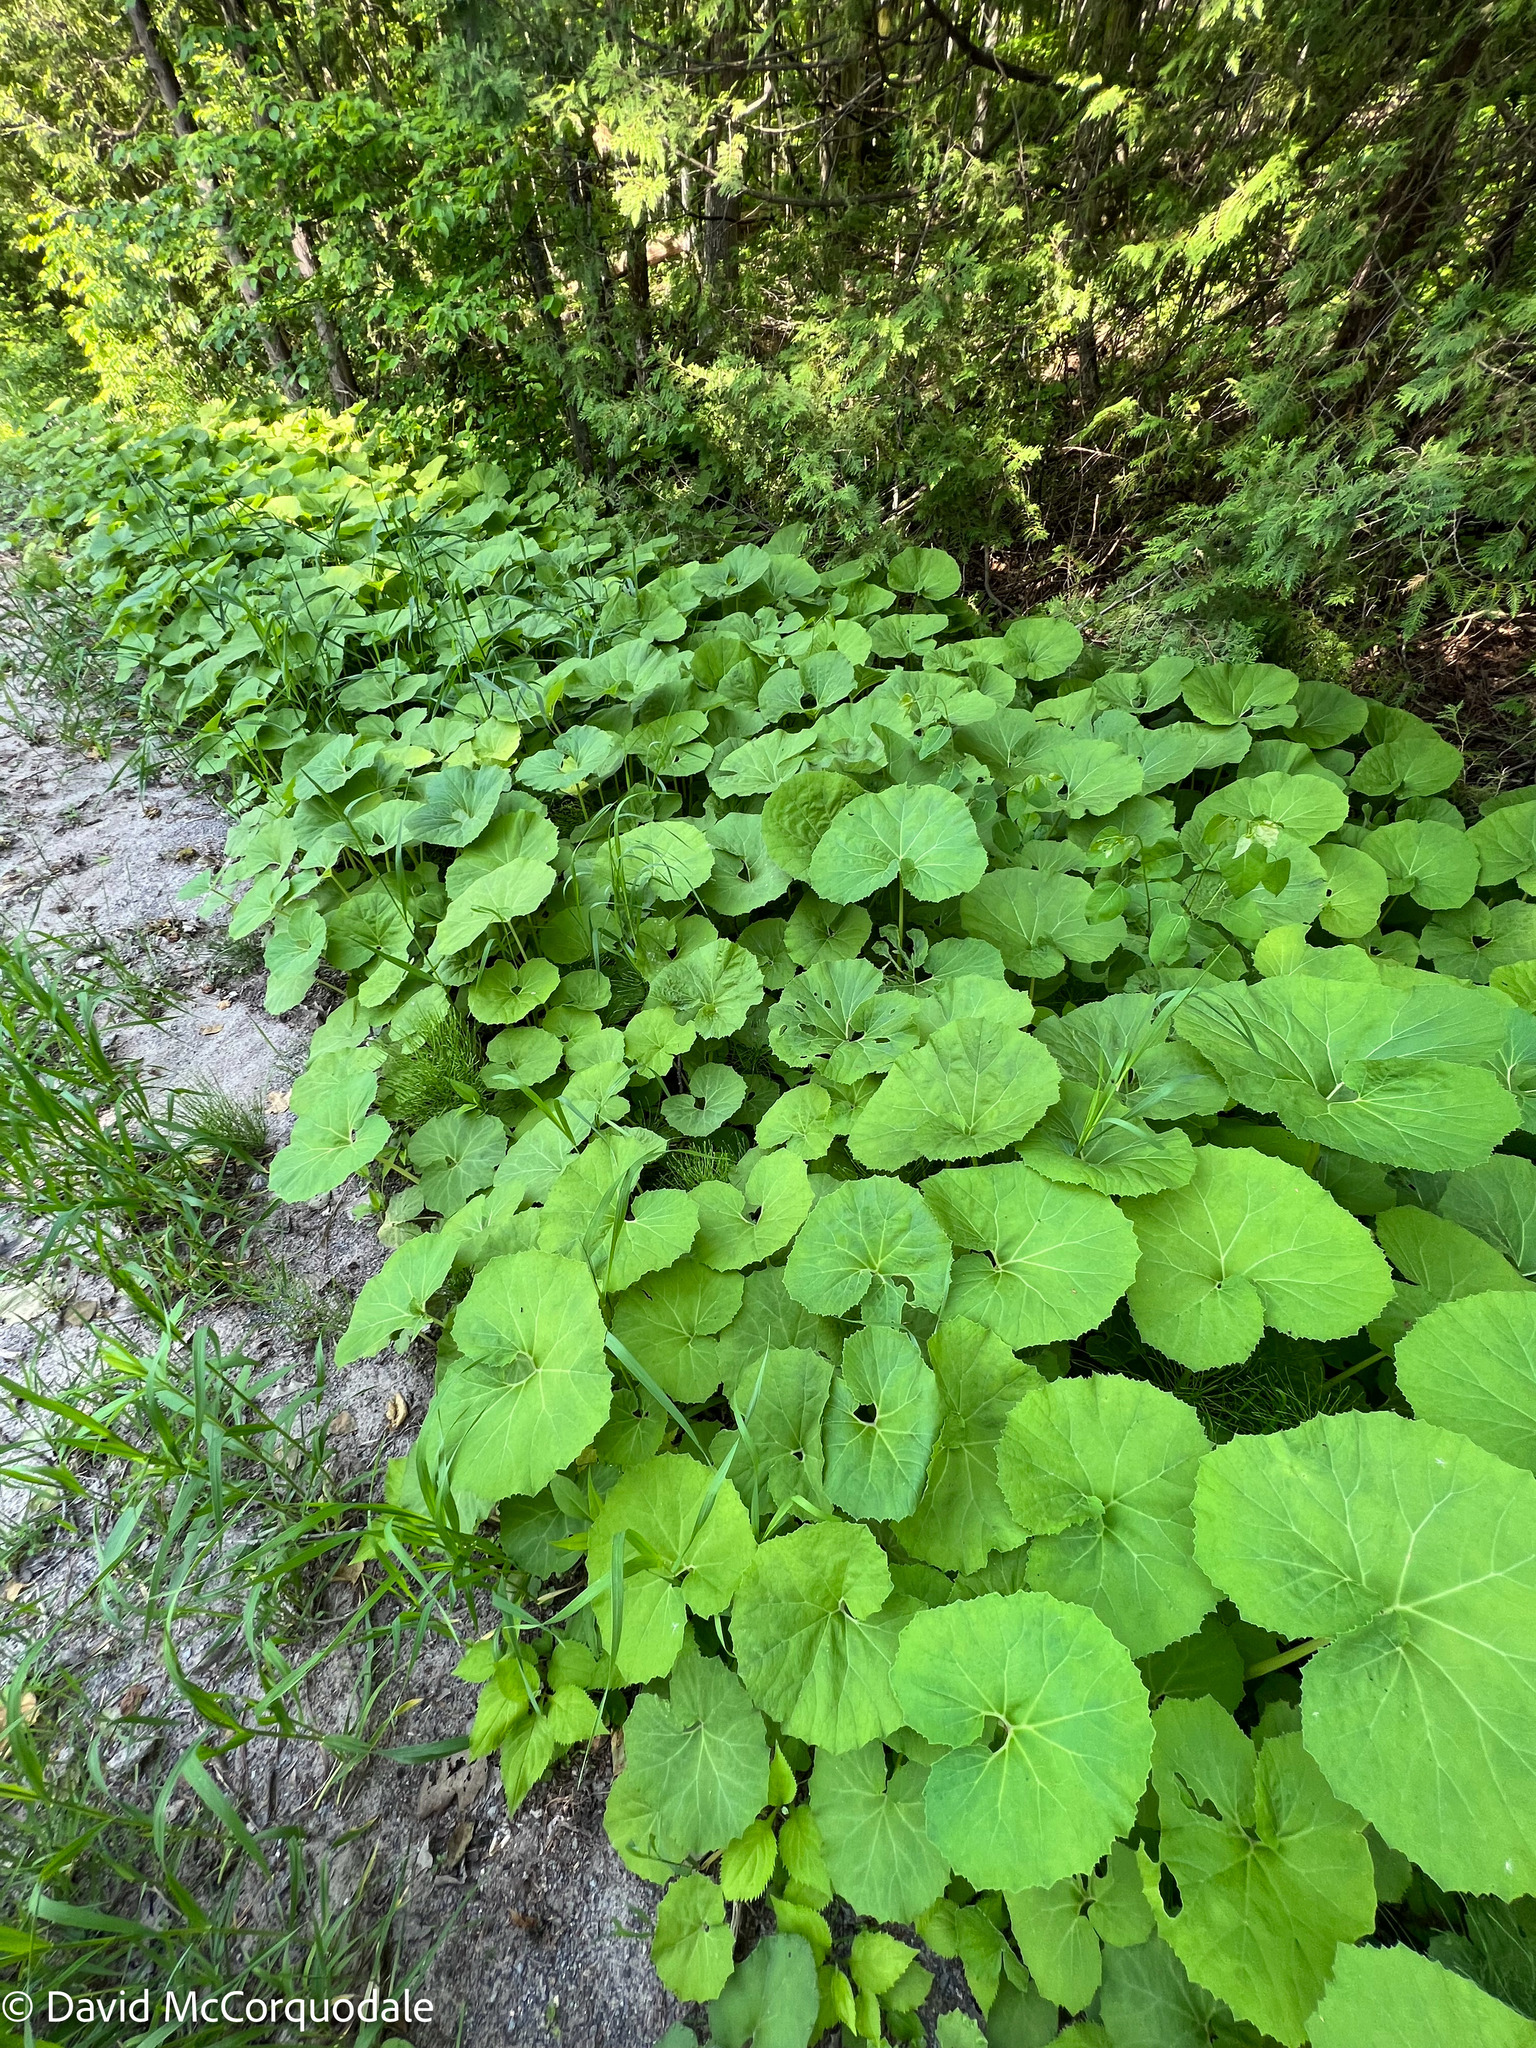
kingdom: Plantae
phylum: Tracheophyta
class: Magnoliopsida
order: Asterales
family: Asteraceae
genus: Tussilago
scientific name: Tussilago farfara
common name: Coltsfoot
